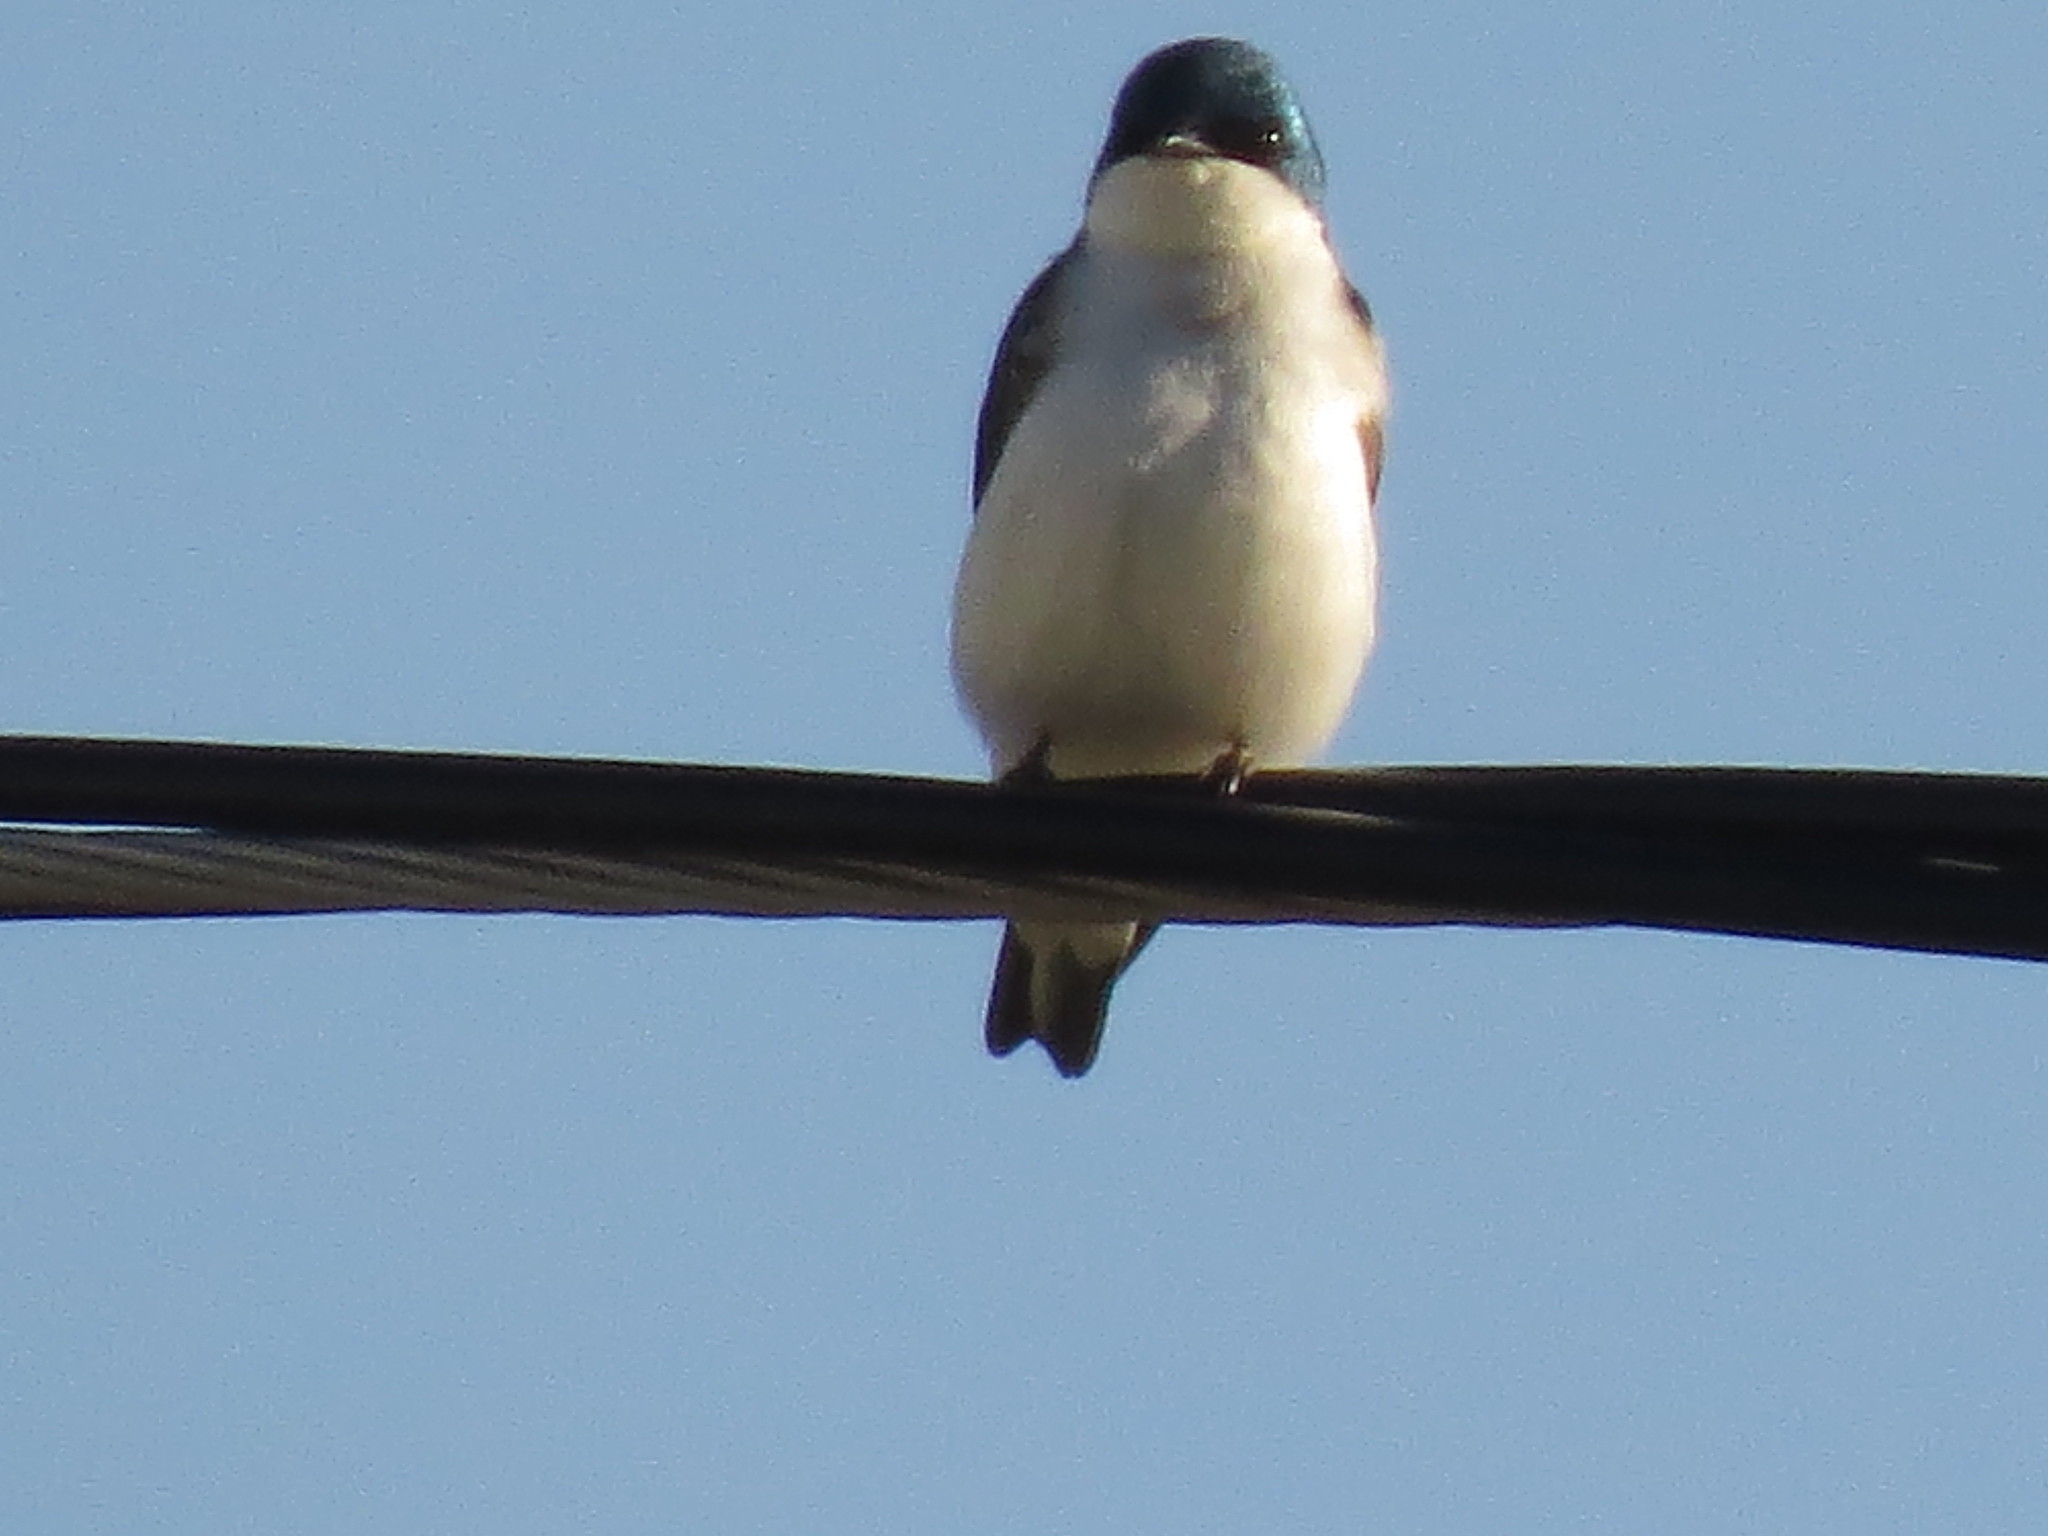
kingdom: Animalia
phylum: Chordata
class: Aves
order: Passeriformes
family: Hirundinidae
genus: Tachycineta
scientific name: Tachycineta bicolor
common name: Tree swallow
